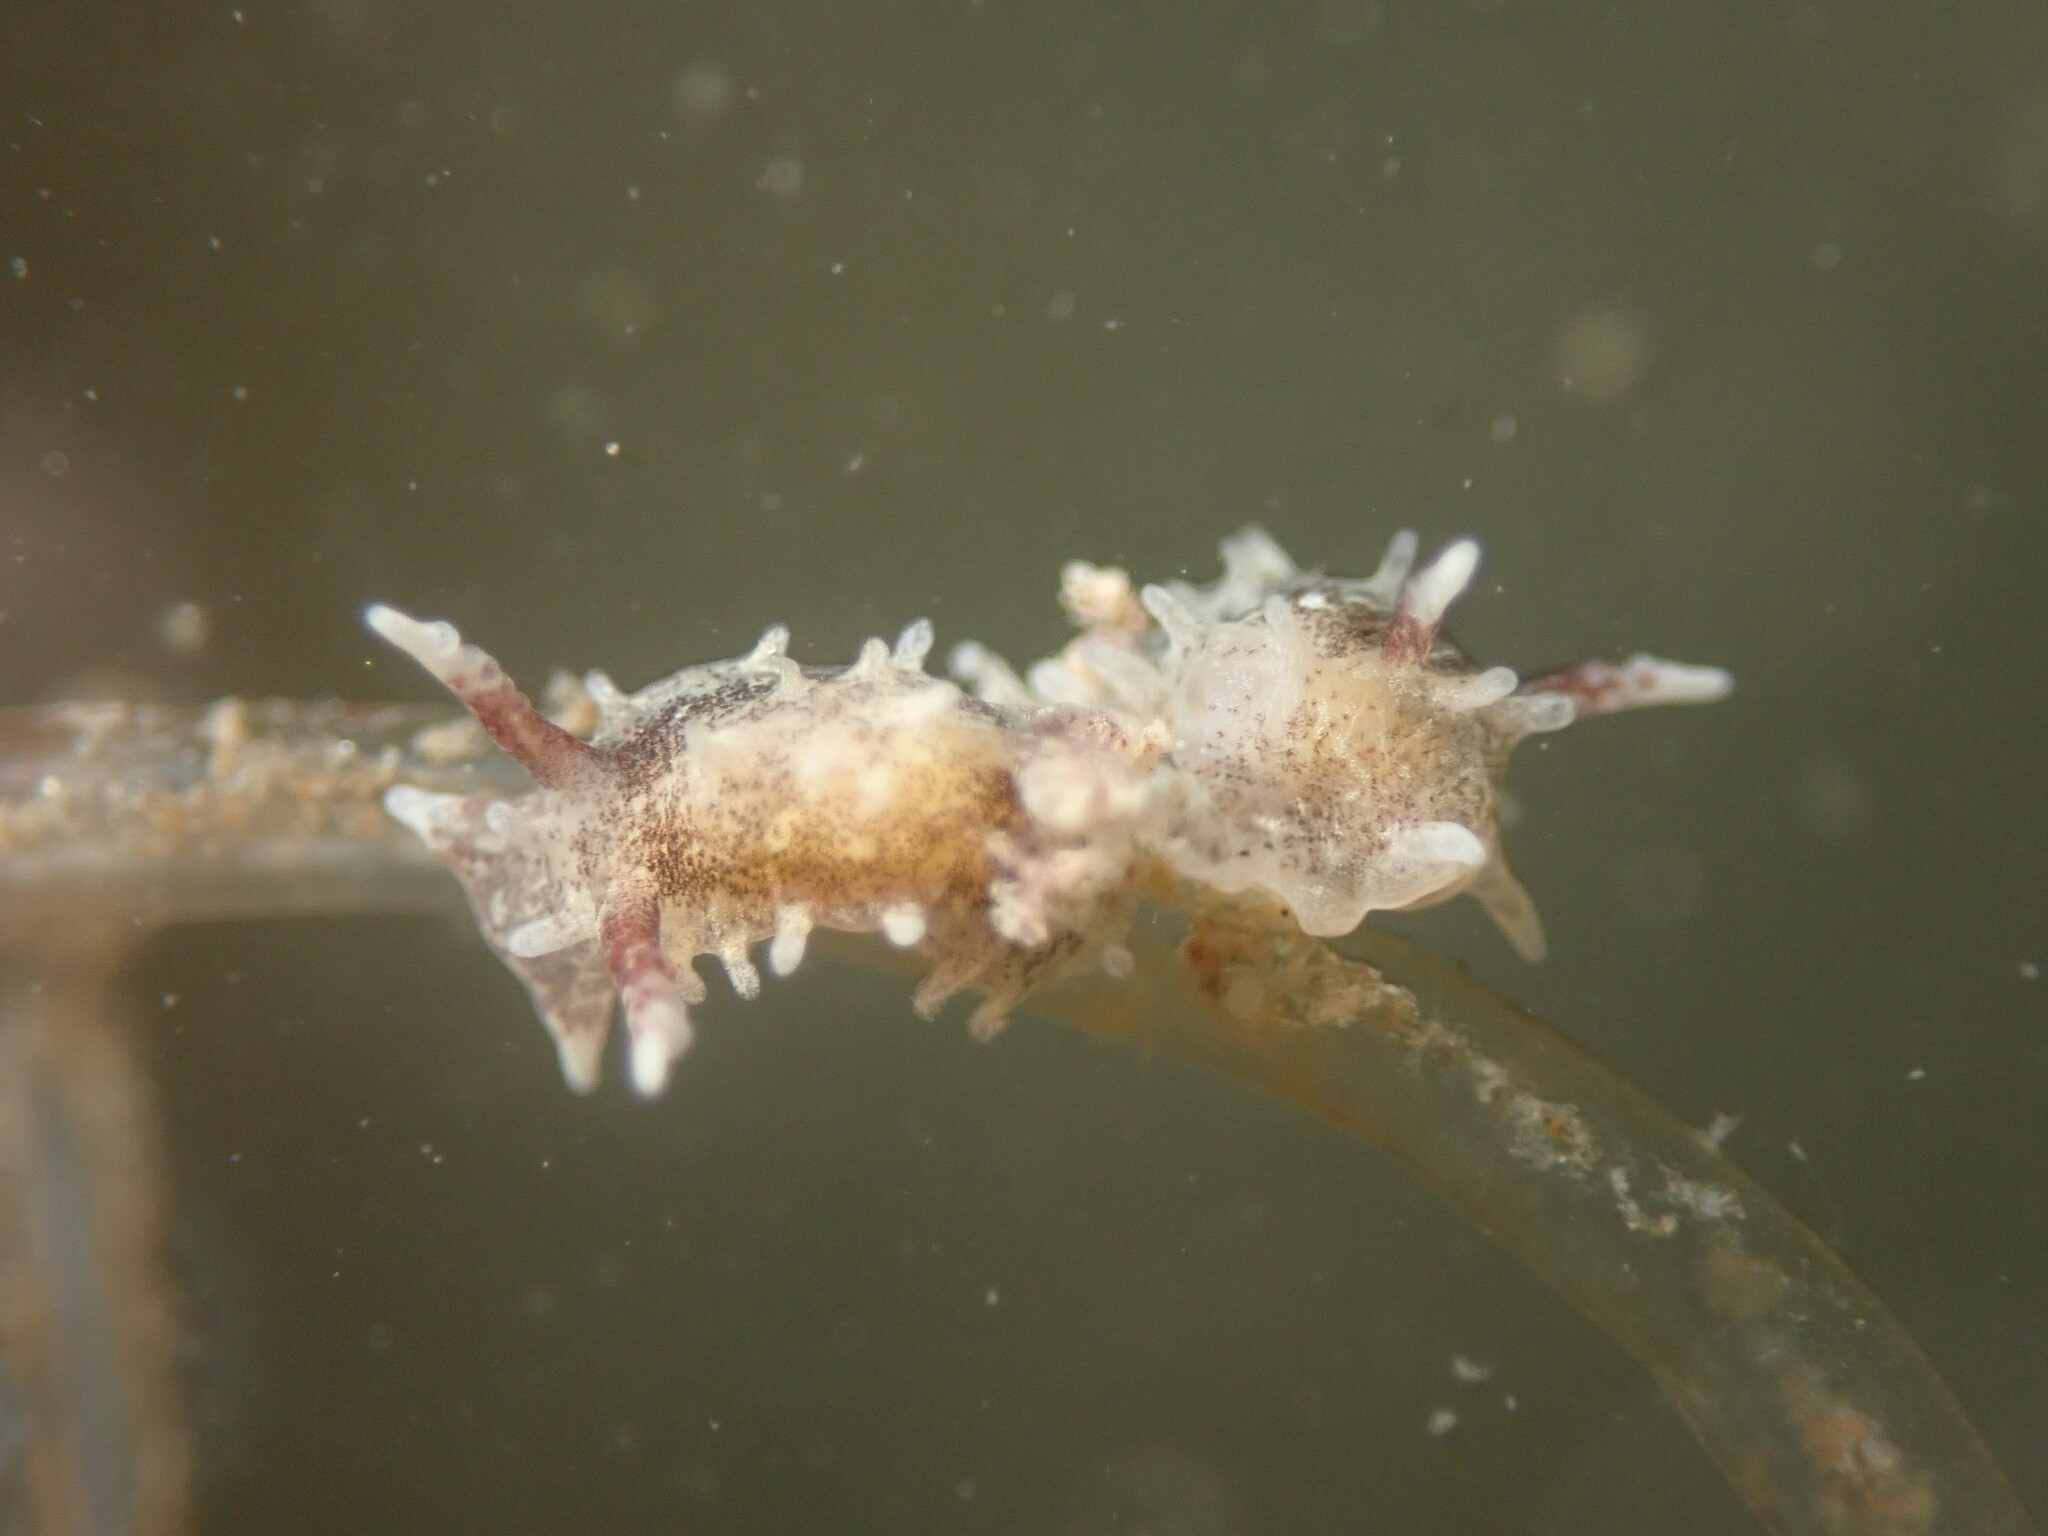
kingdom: Animalia
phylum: Mollusca
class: Gastropoda
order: Nudibranchia
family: Goniodorididae
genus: Okenia
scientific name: Okenia
